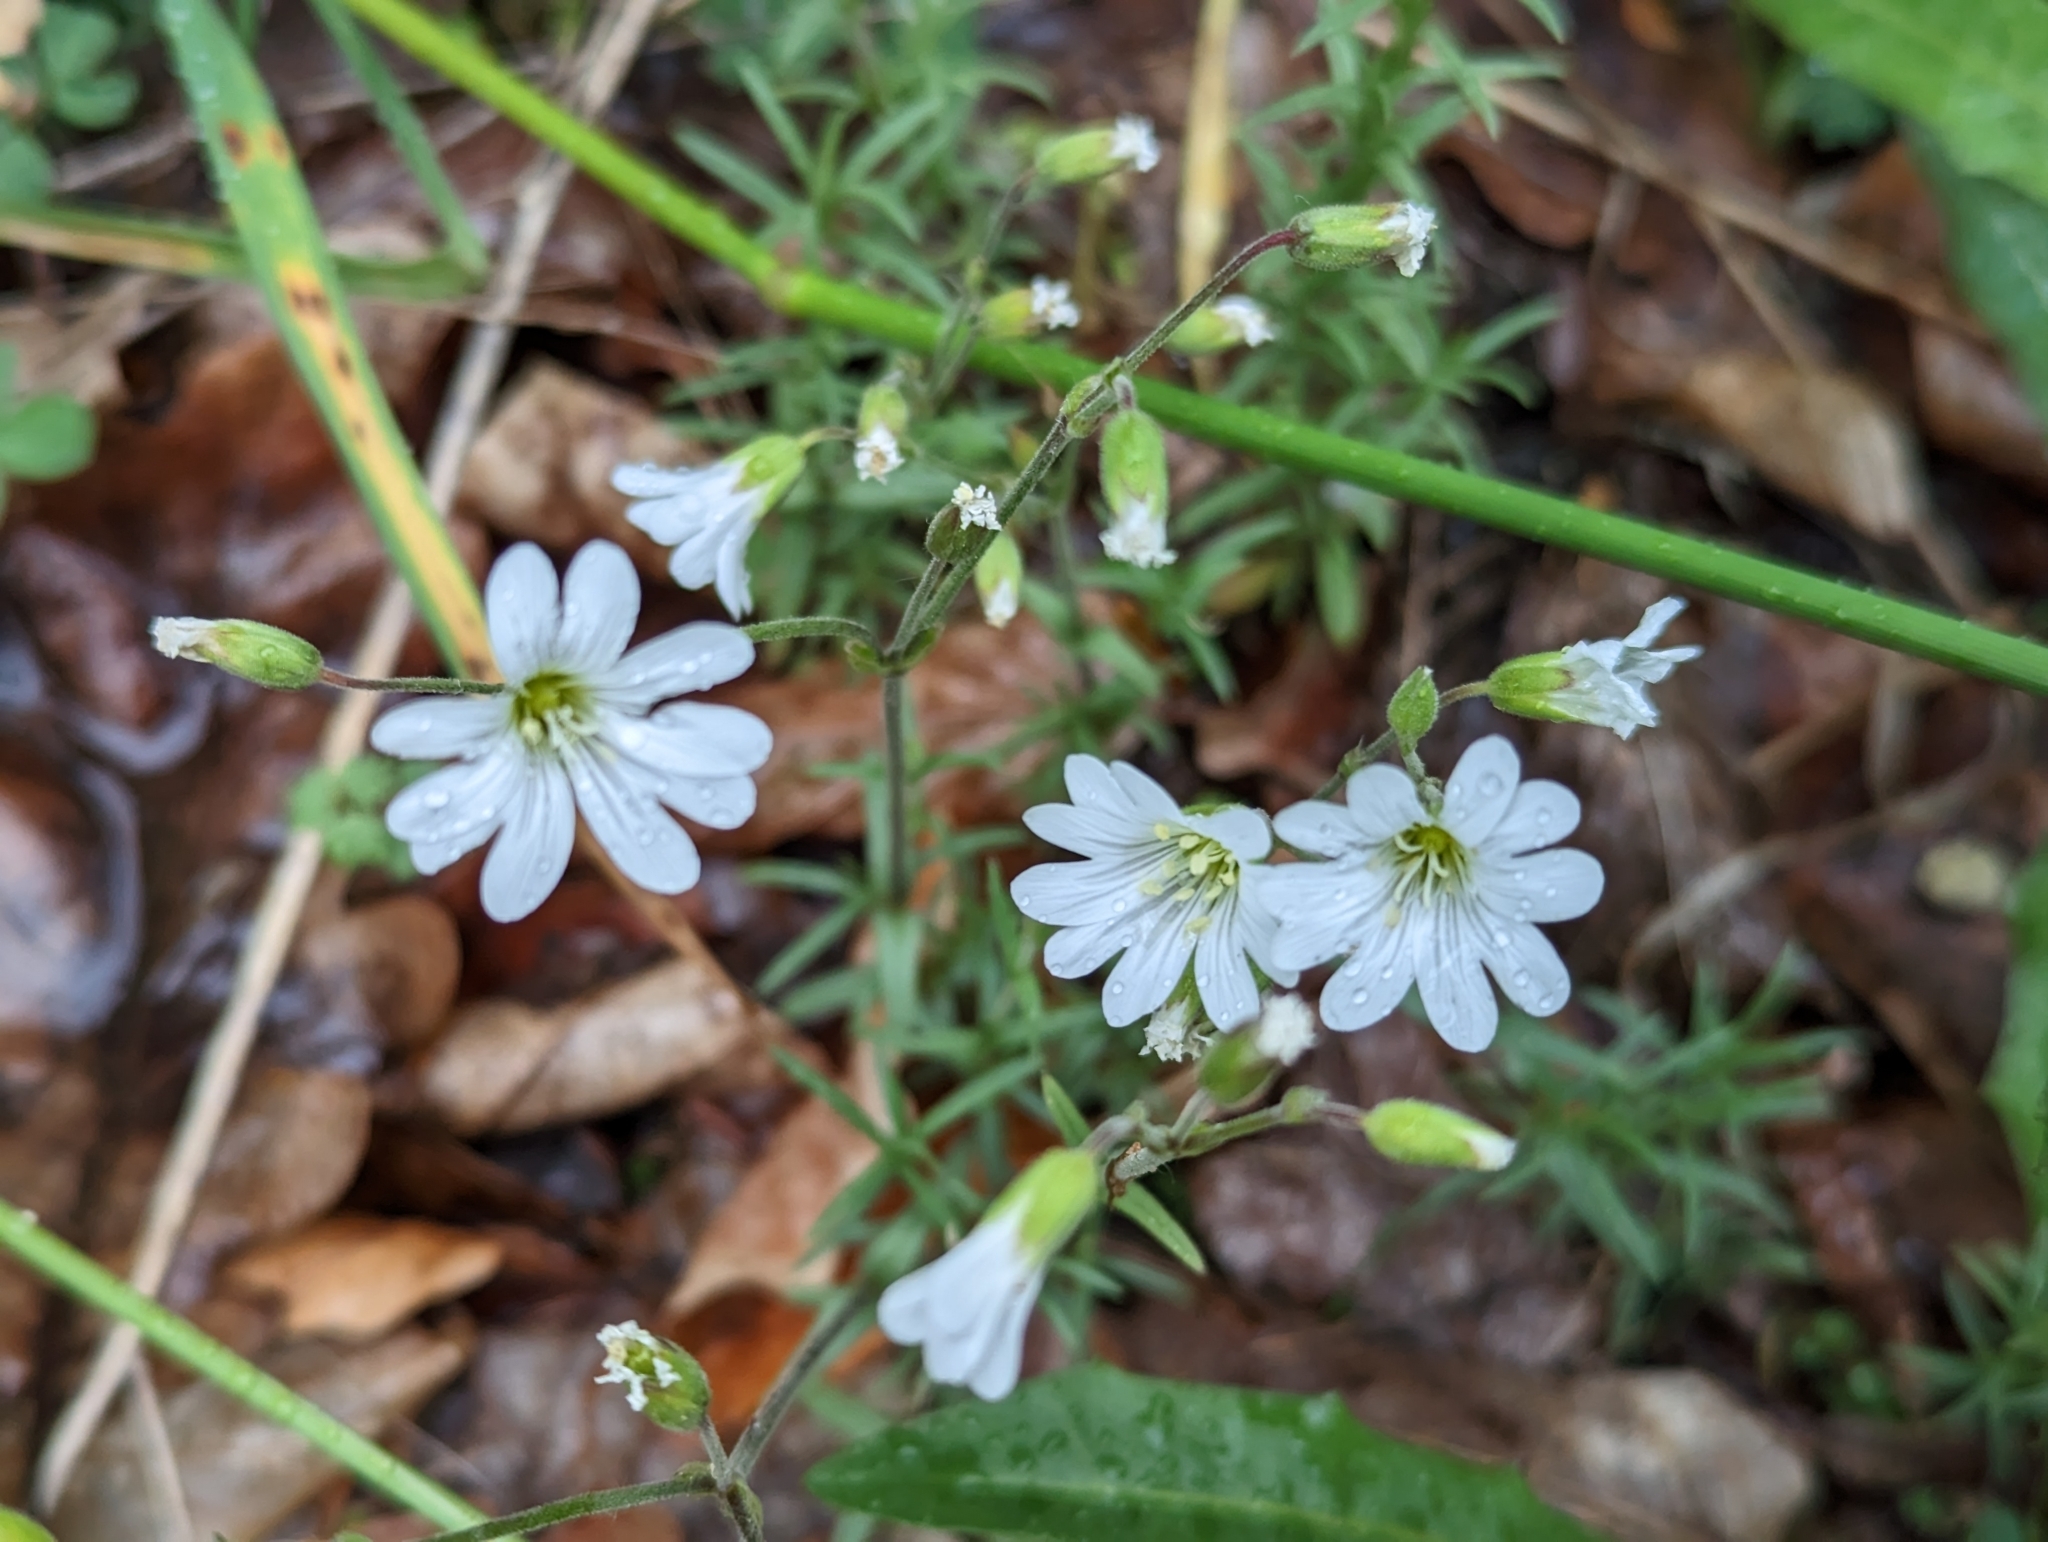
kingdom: Plantae
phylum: Tracheophyta
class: Magnoliopsida
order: Caryophyllales
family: Caryophyllaceae
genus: Cerastium
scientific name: Cerastium arvense
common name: Field mouse-ear
